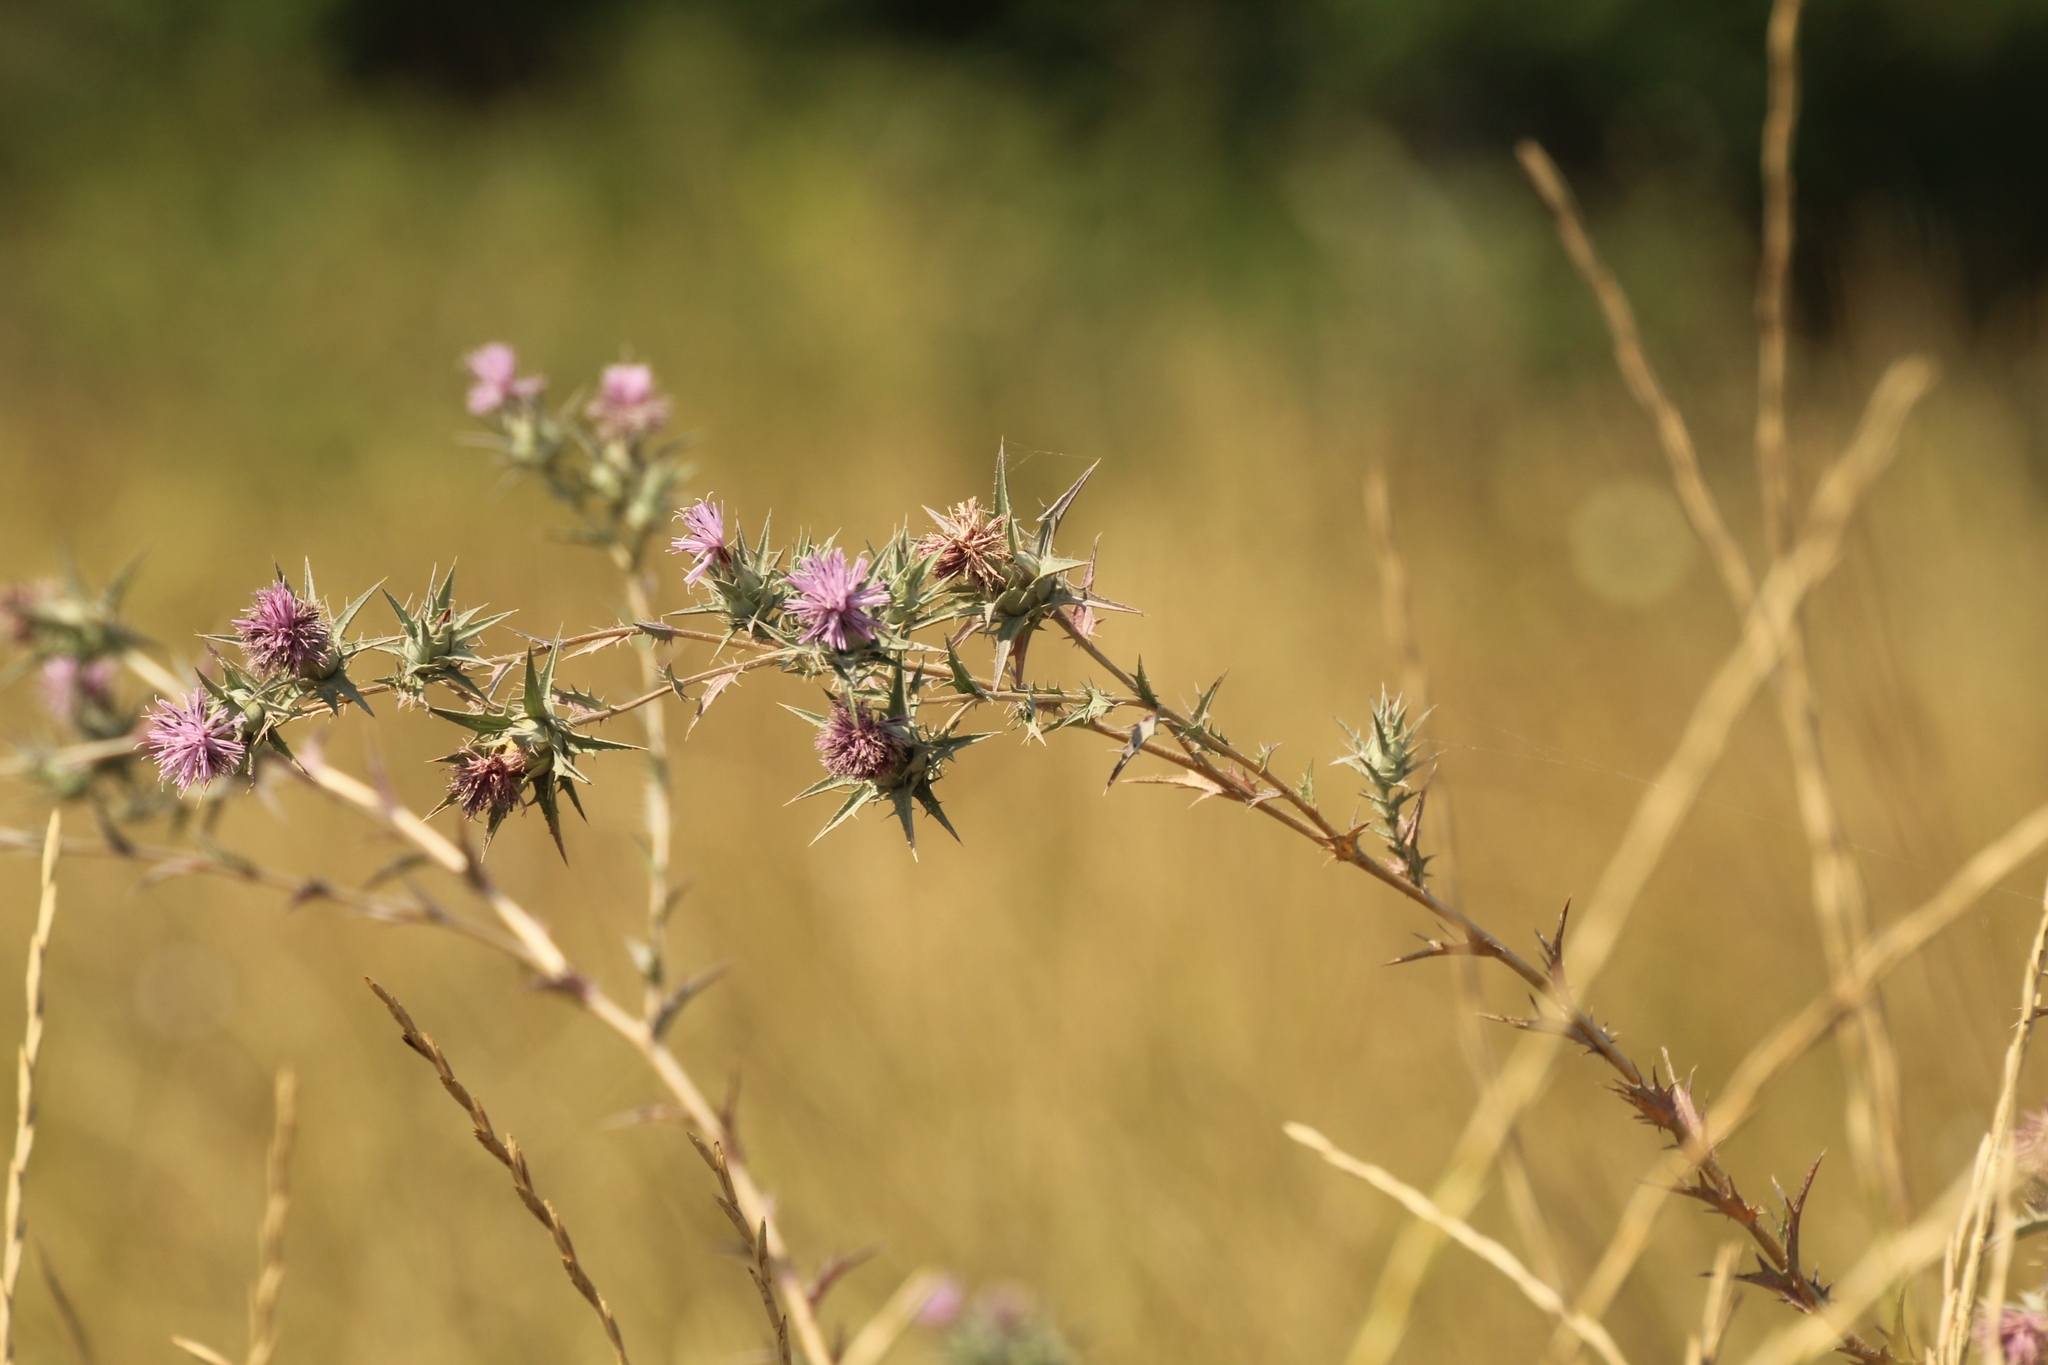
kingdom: Plantae
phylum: Tracheophyta
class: Magnoliopsida
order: Asterales
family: Asteraceae
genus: Carthamus
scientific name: Carthamus glaucus
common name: Mediterranean thistle
